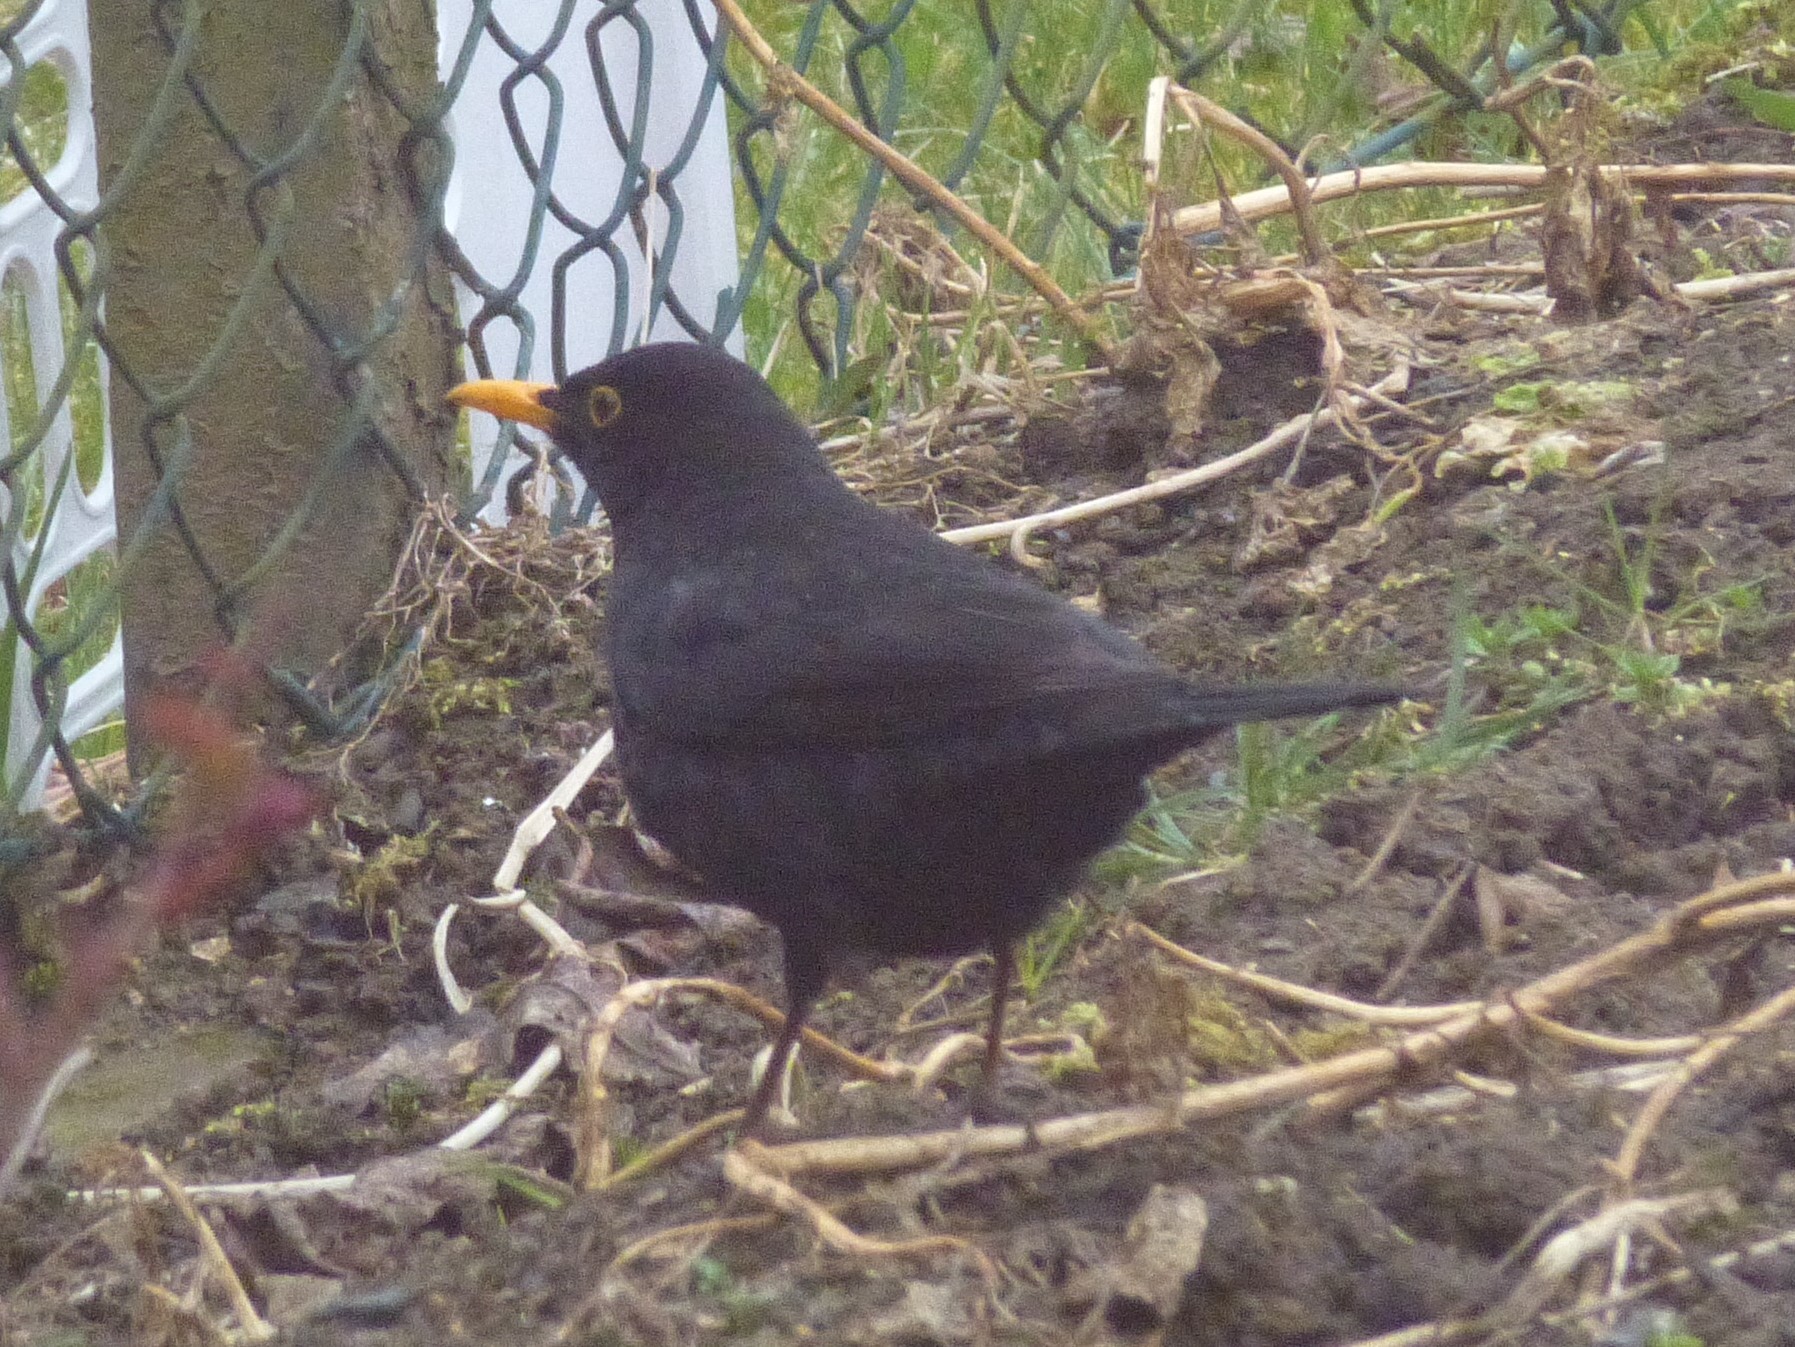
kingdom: Animalia
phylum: Chordata
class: Aves
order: Passeriformes
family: Turdidae
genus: Turdus
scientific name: Turdus merula
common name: Common blackbird
